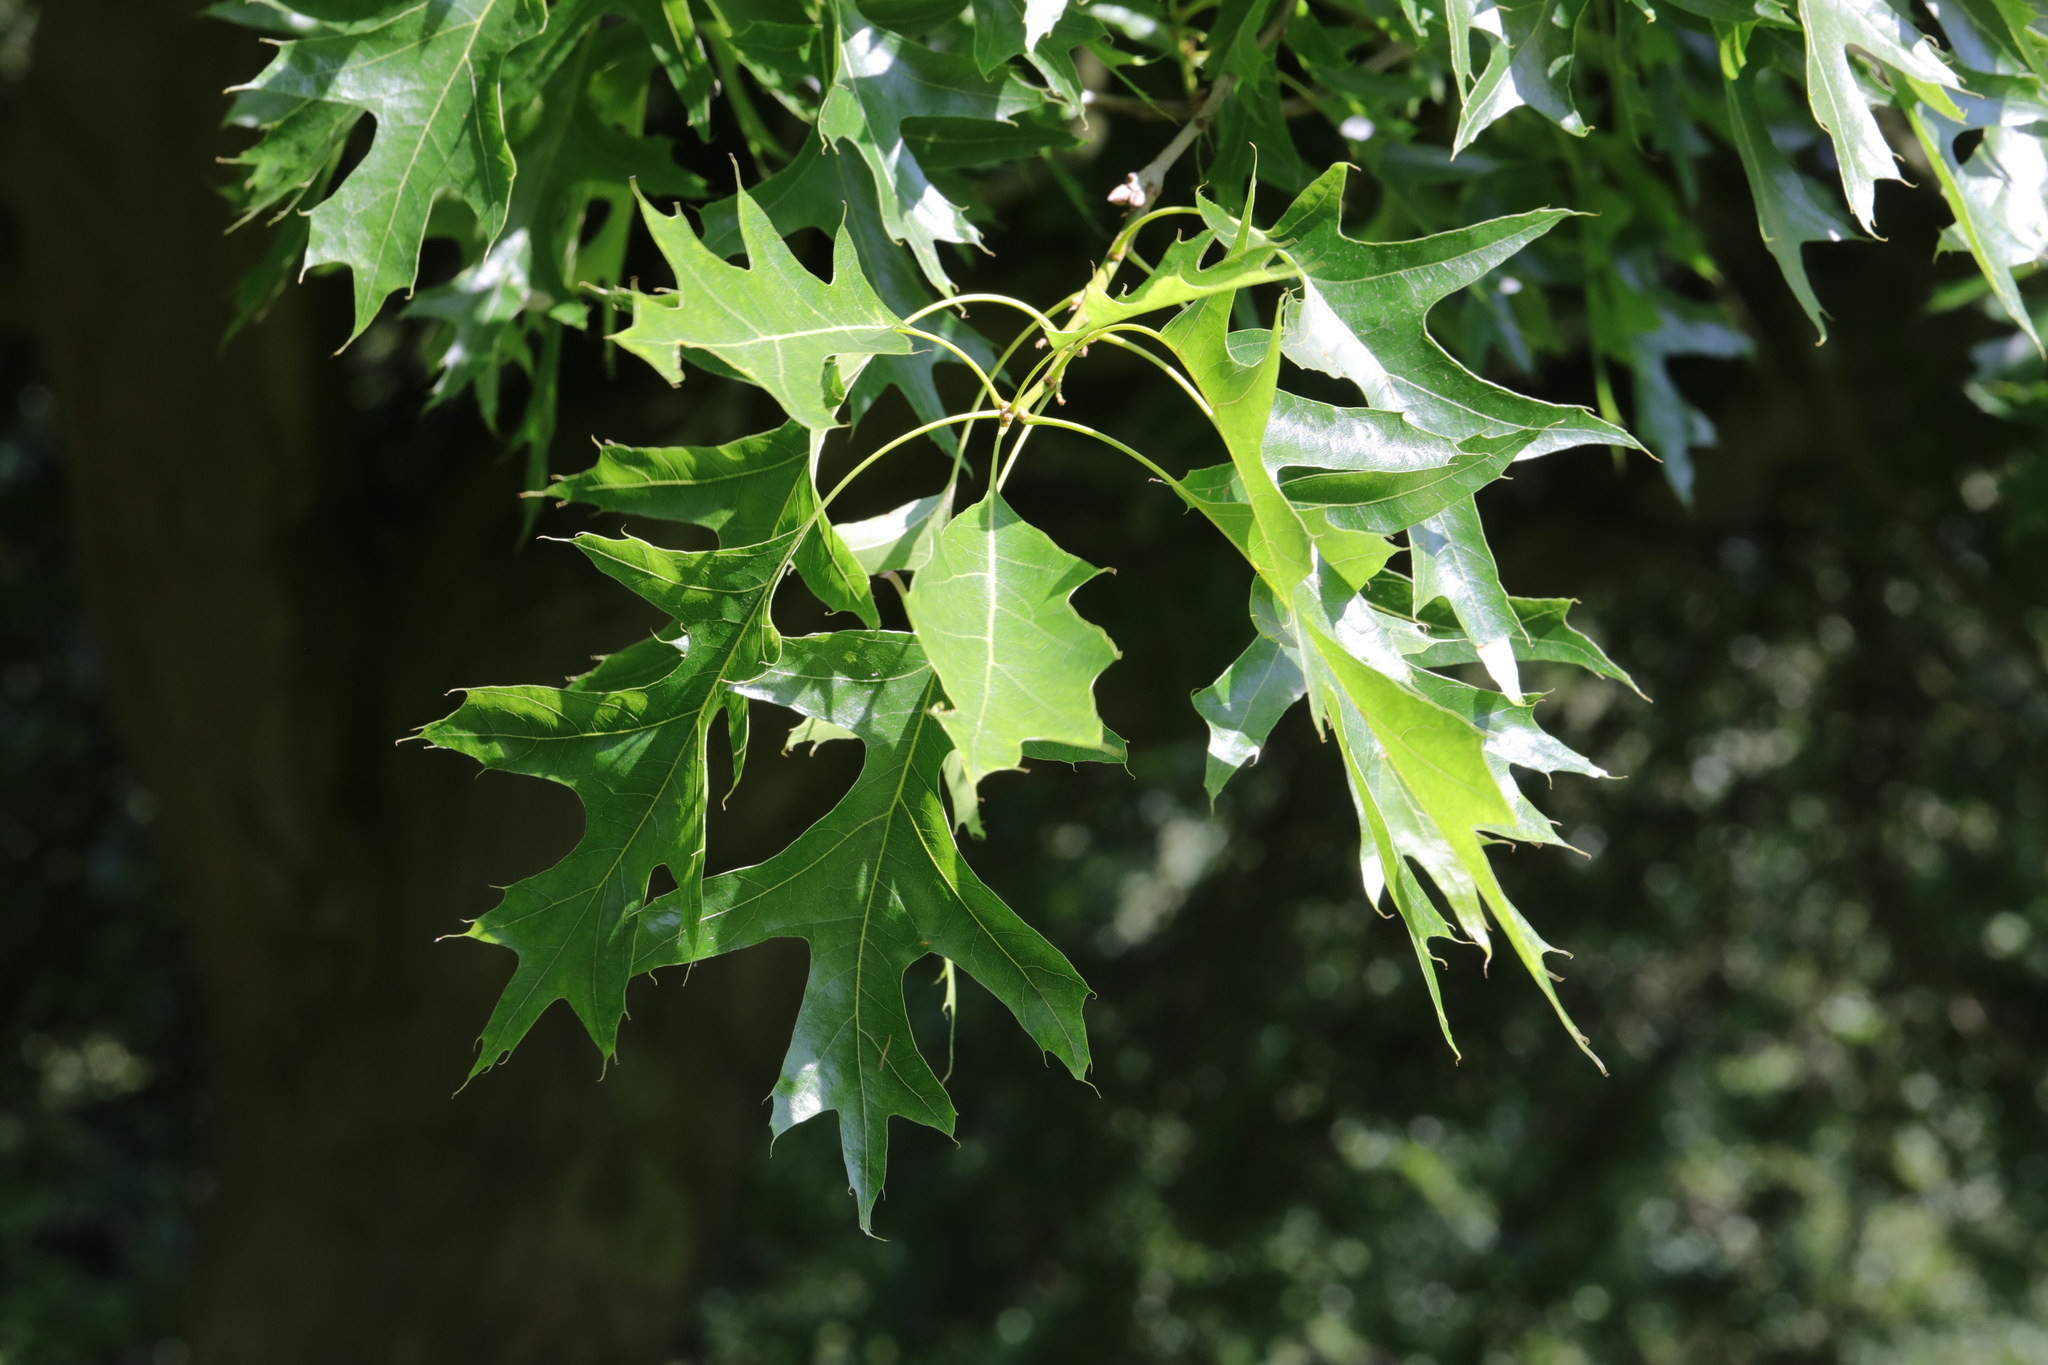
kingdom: Plantae
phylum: Tracheophyta
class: Magnoliopsida
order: Fagales
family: Fagaceae
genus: Quercus
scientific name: Quercus rubra
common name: Red oak
